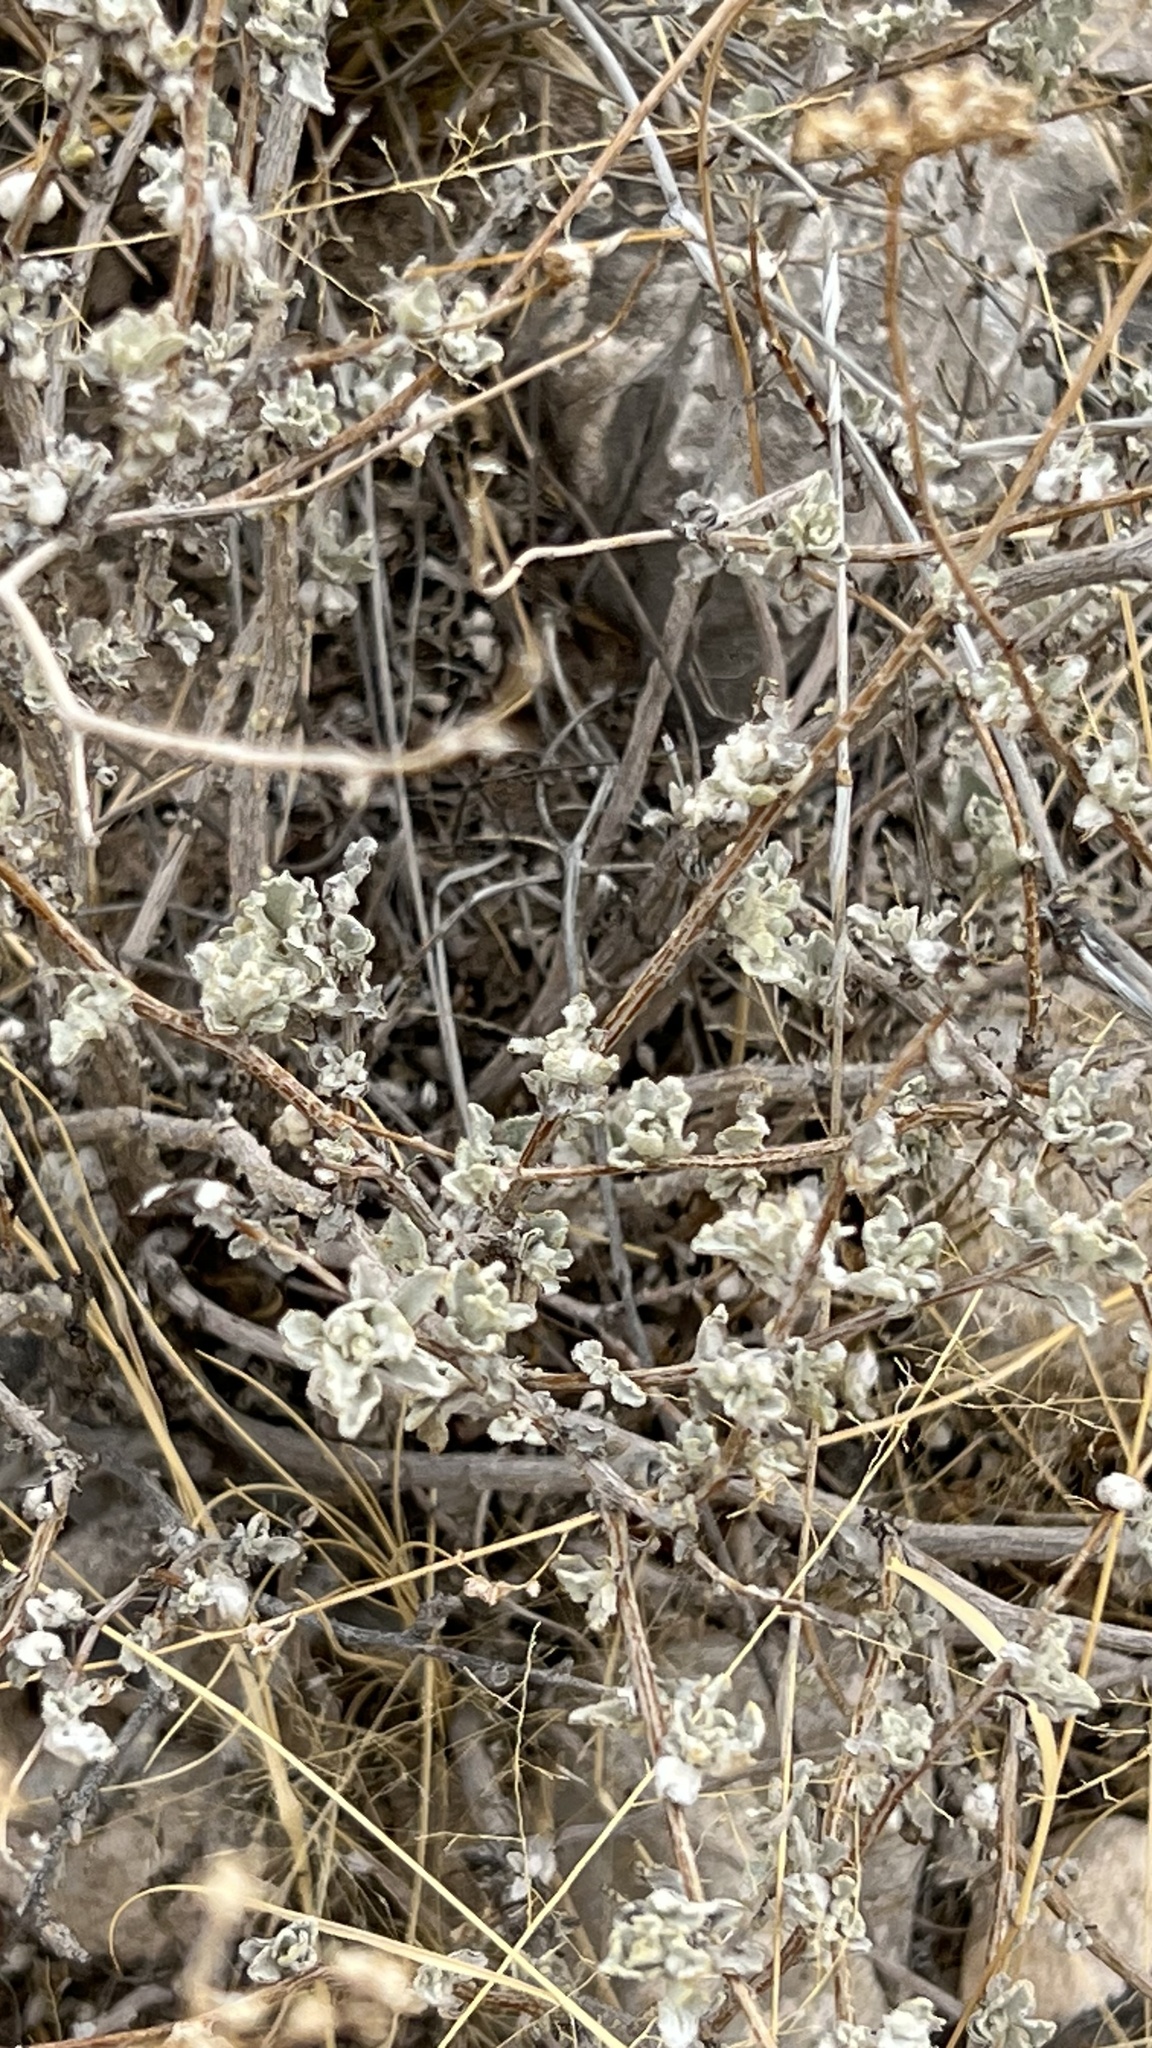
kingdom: Plantae
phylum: Tracheophyta
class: Magnoliopsida
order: Asterales
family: Asteraceae
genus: Parthenium
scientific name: Parthenium incanum
